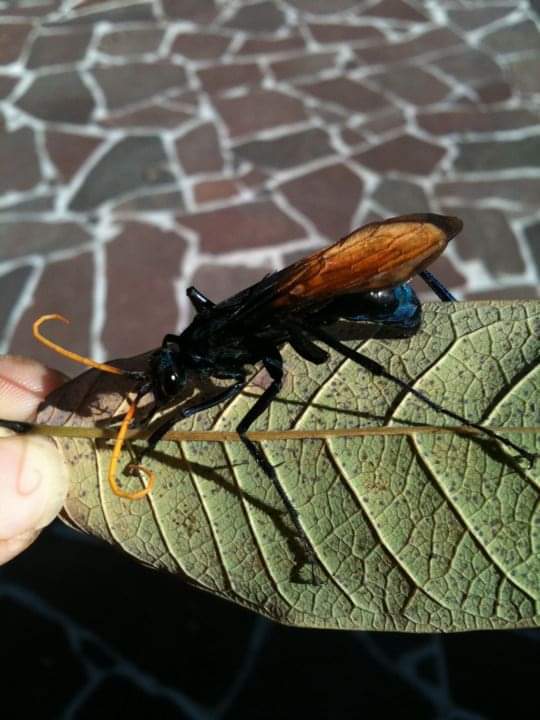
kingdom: Animalia
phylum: Arthropoda
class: Insecta
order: Hymenoptera
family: Pompilidae
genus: Pepsis
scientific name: Pepsis mildei
